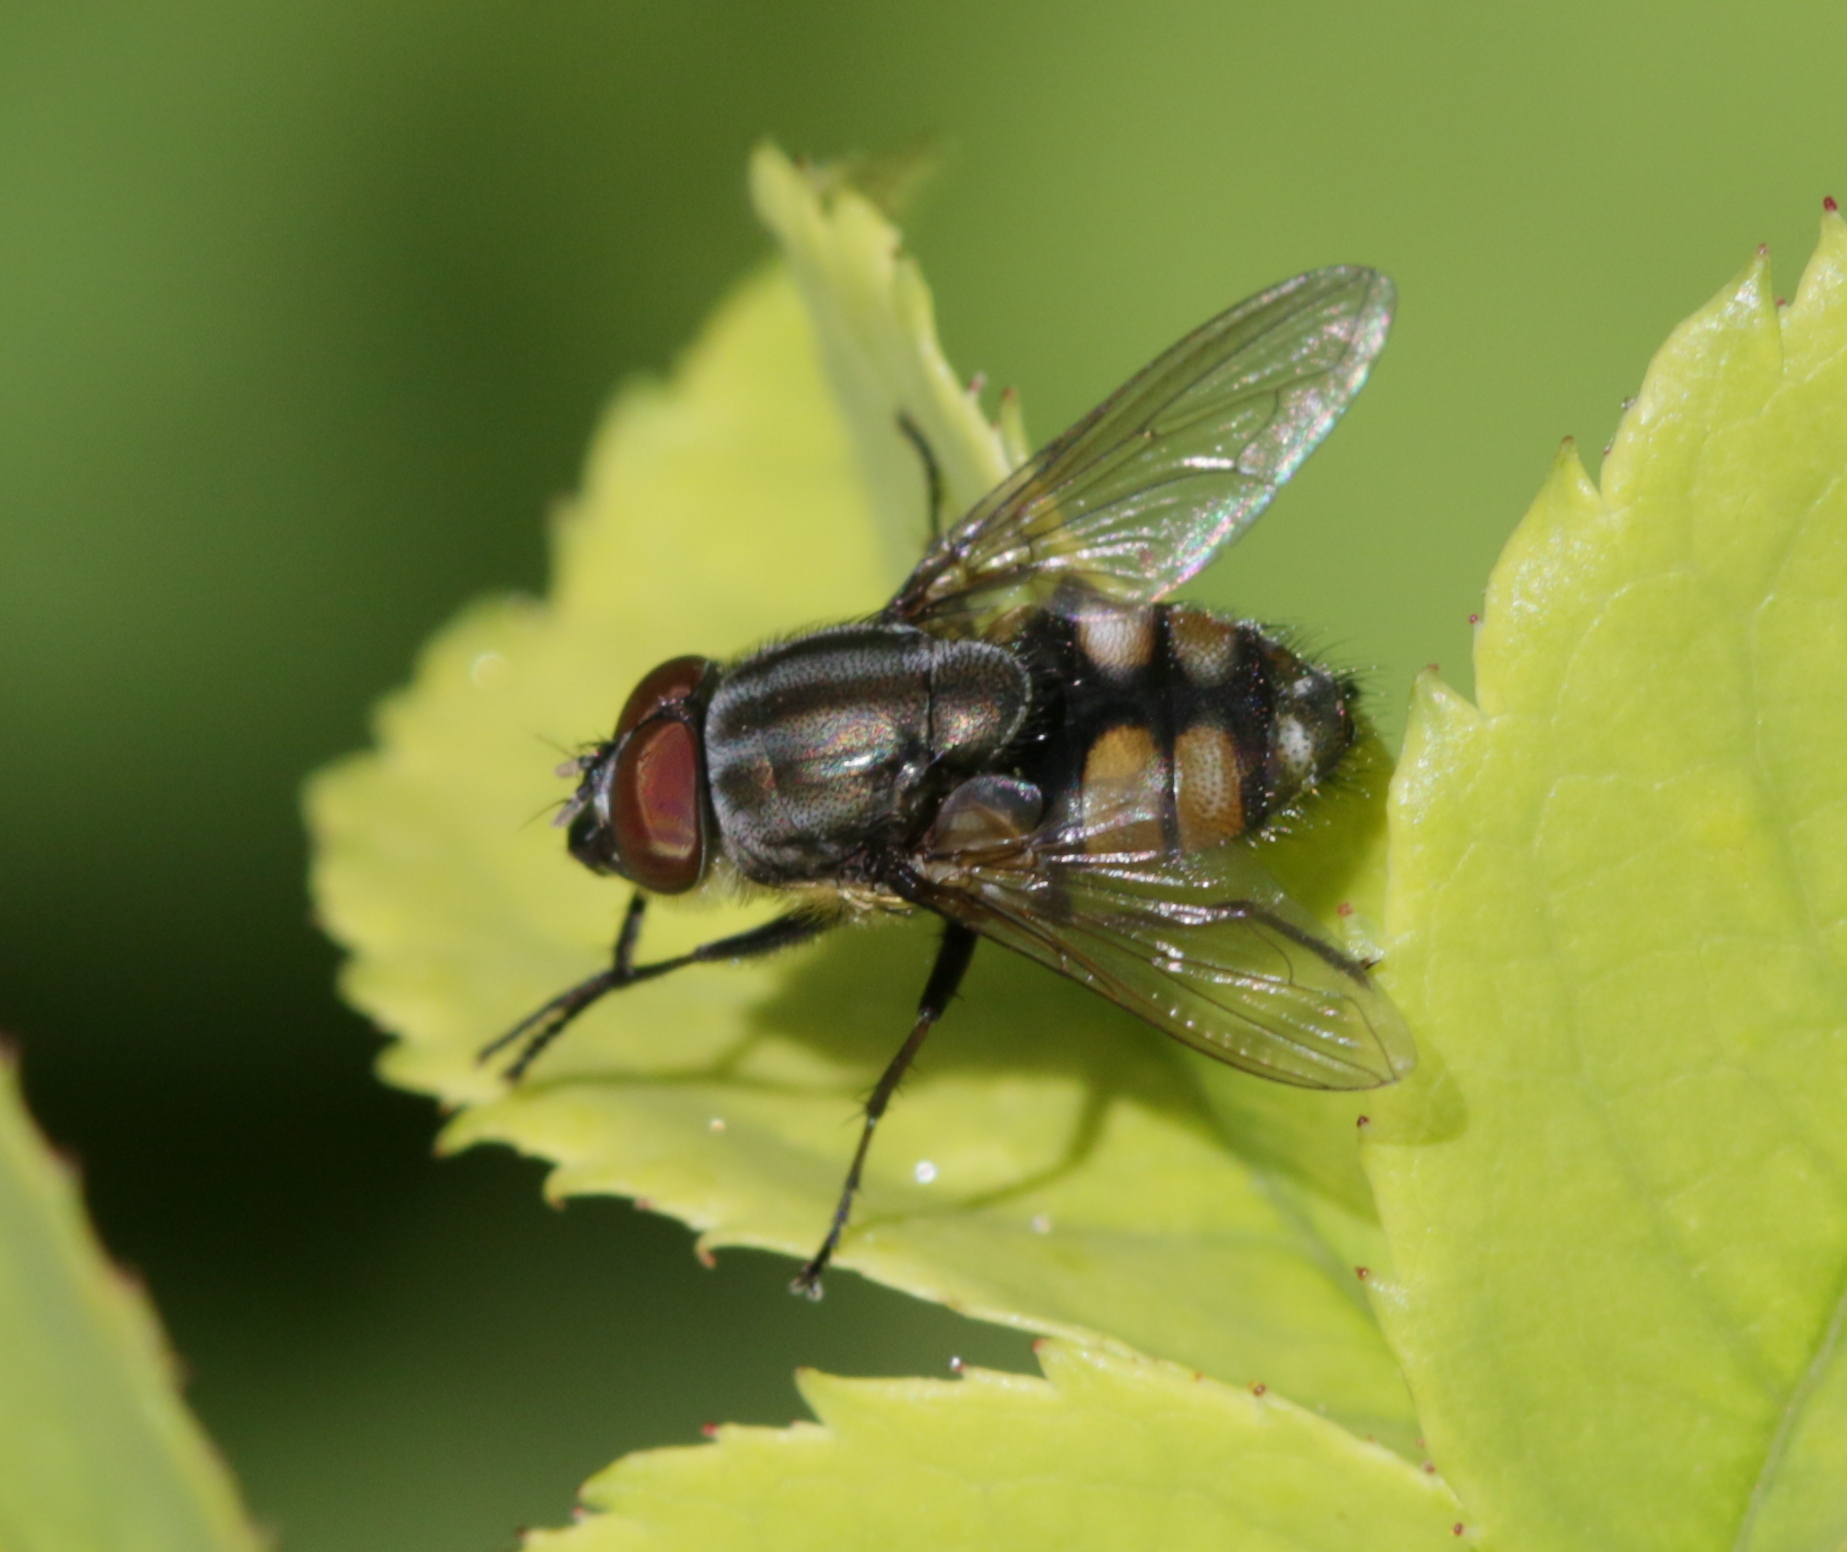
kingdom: Animalia
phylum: Arthropoda
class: Insecta
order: Diptera
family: Calliphoridae
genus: Stomorhina
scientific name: Stomorhina lunata
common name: Locust blowfly
